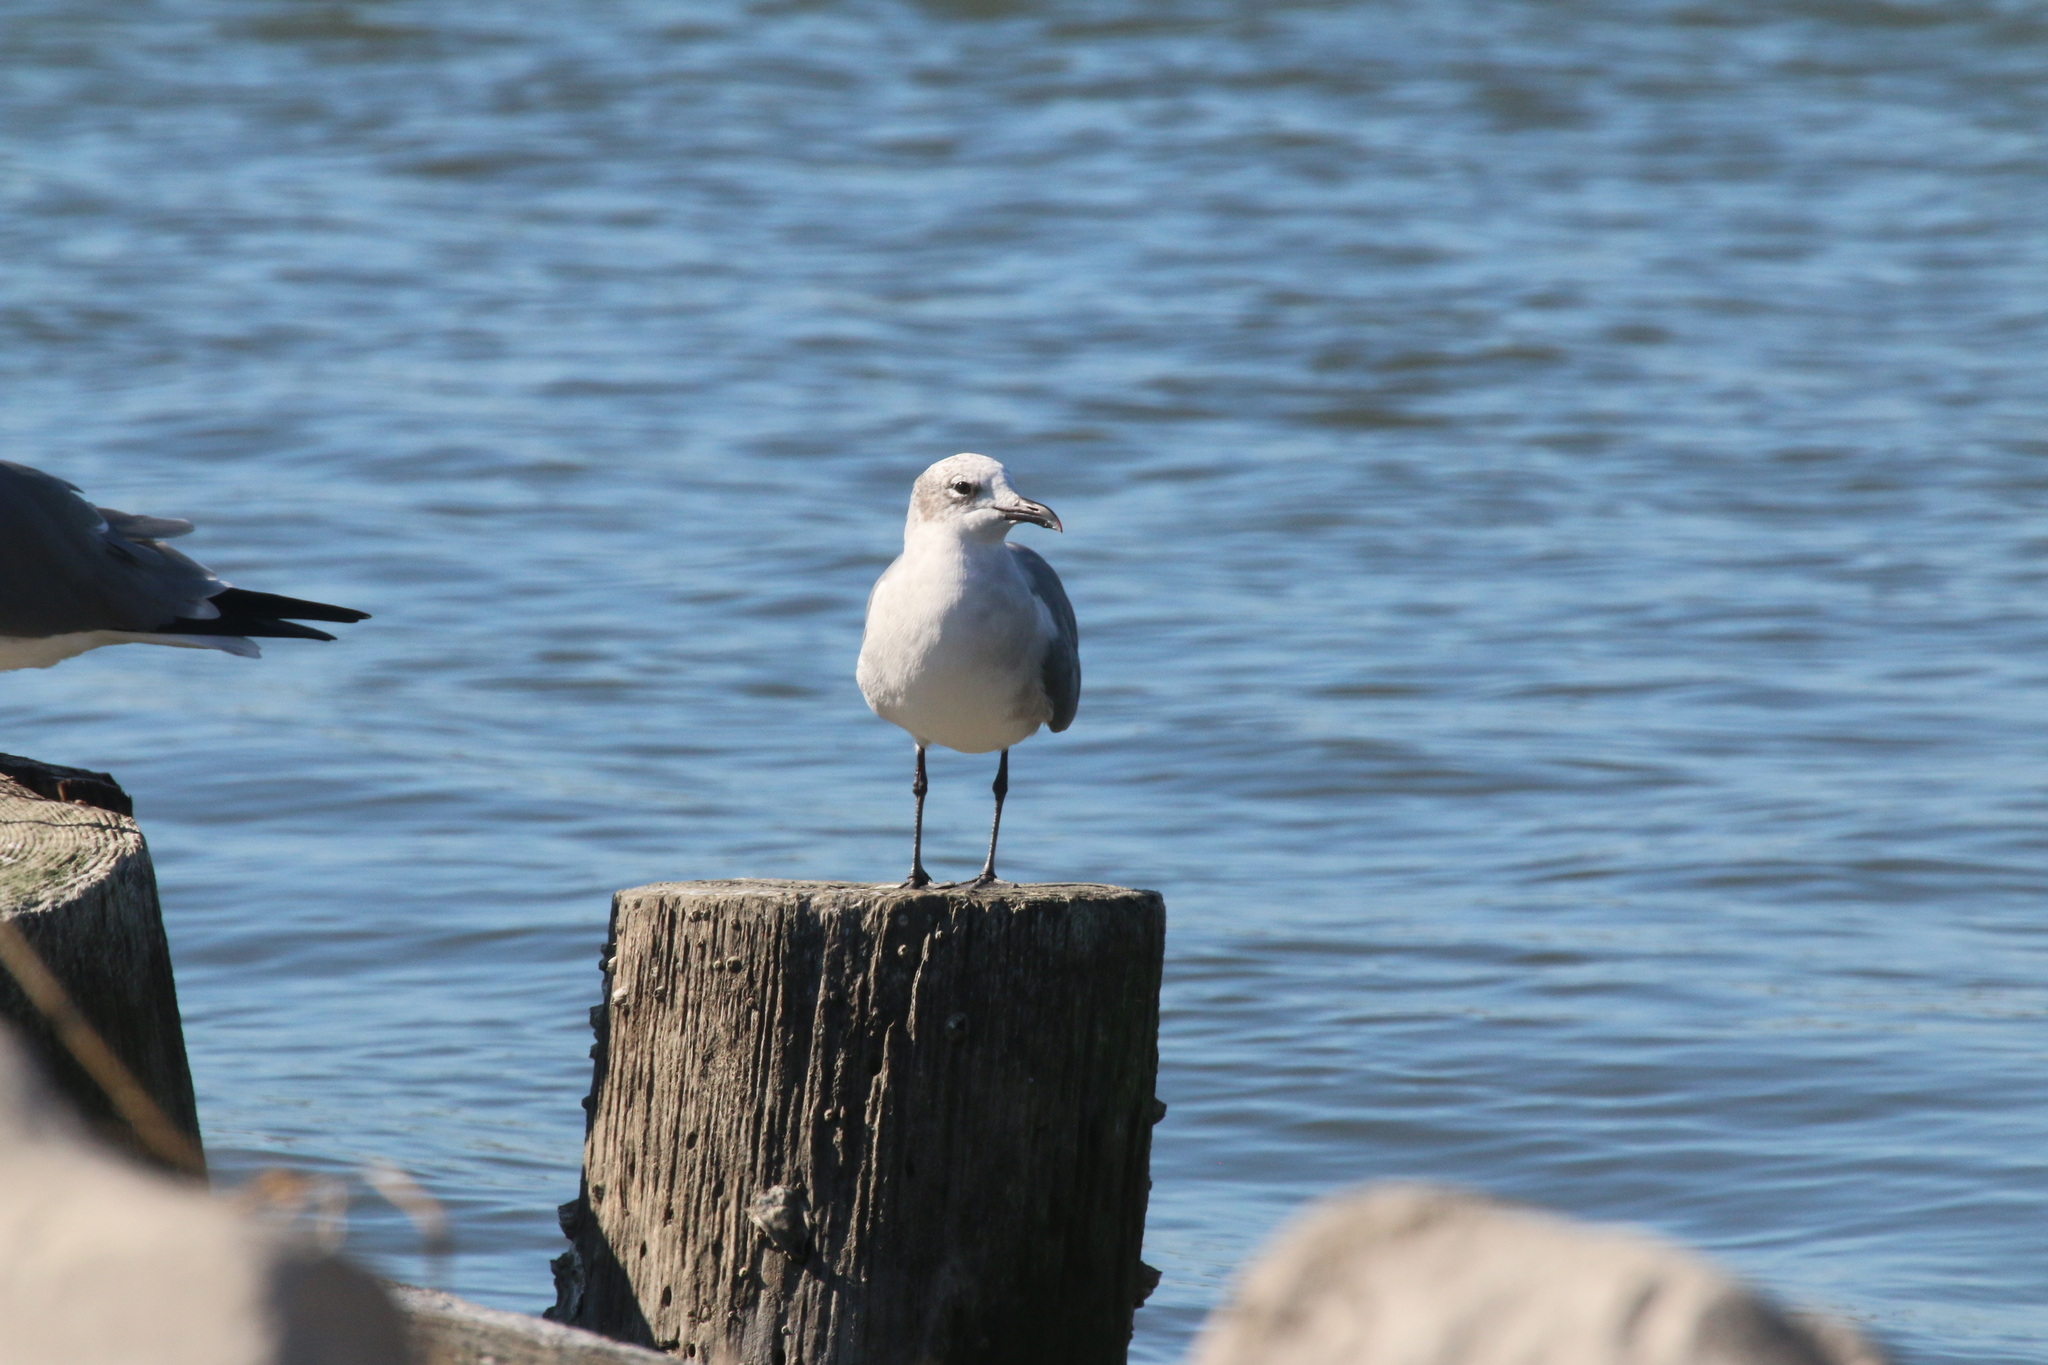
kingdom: Animalia
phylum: Chordata
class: Aves
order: Charadriiformes
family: Laridae
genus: Leucophaeus
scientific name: Leucophaeus atricilla
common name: Laughing gull
